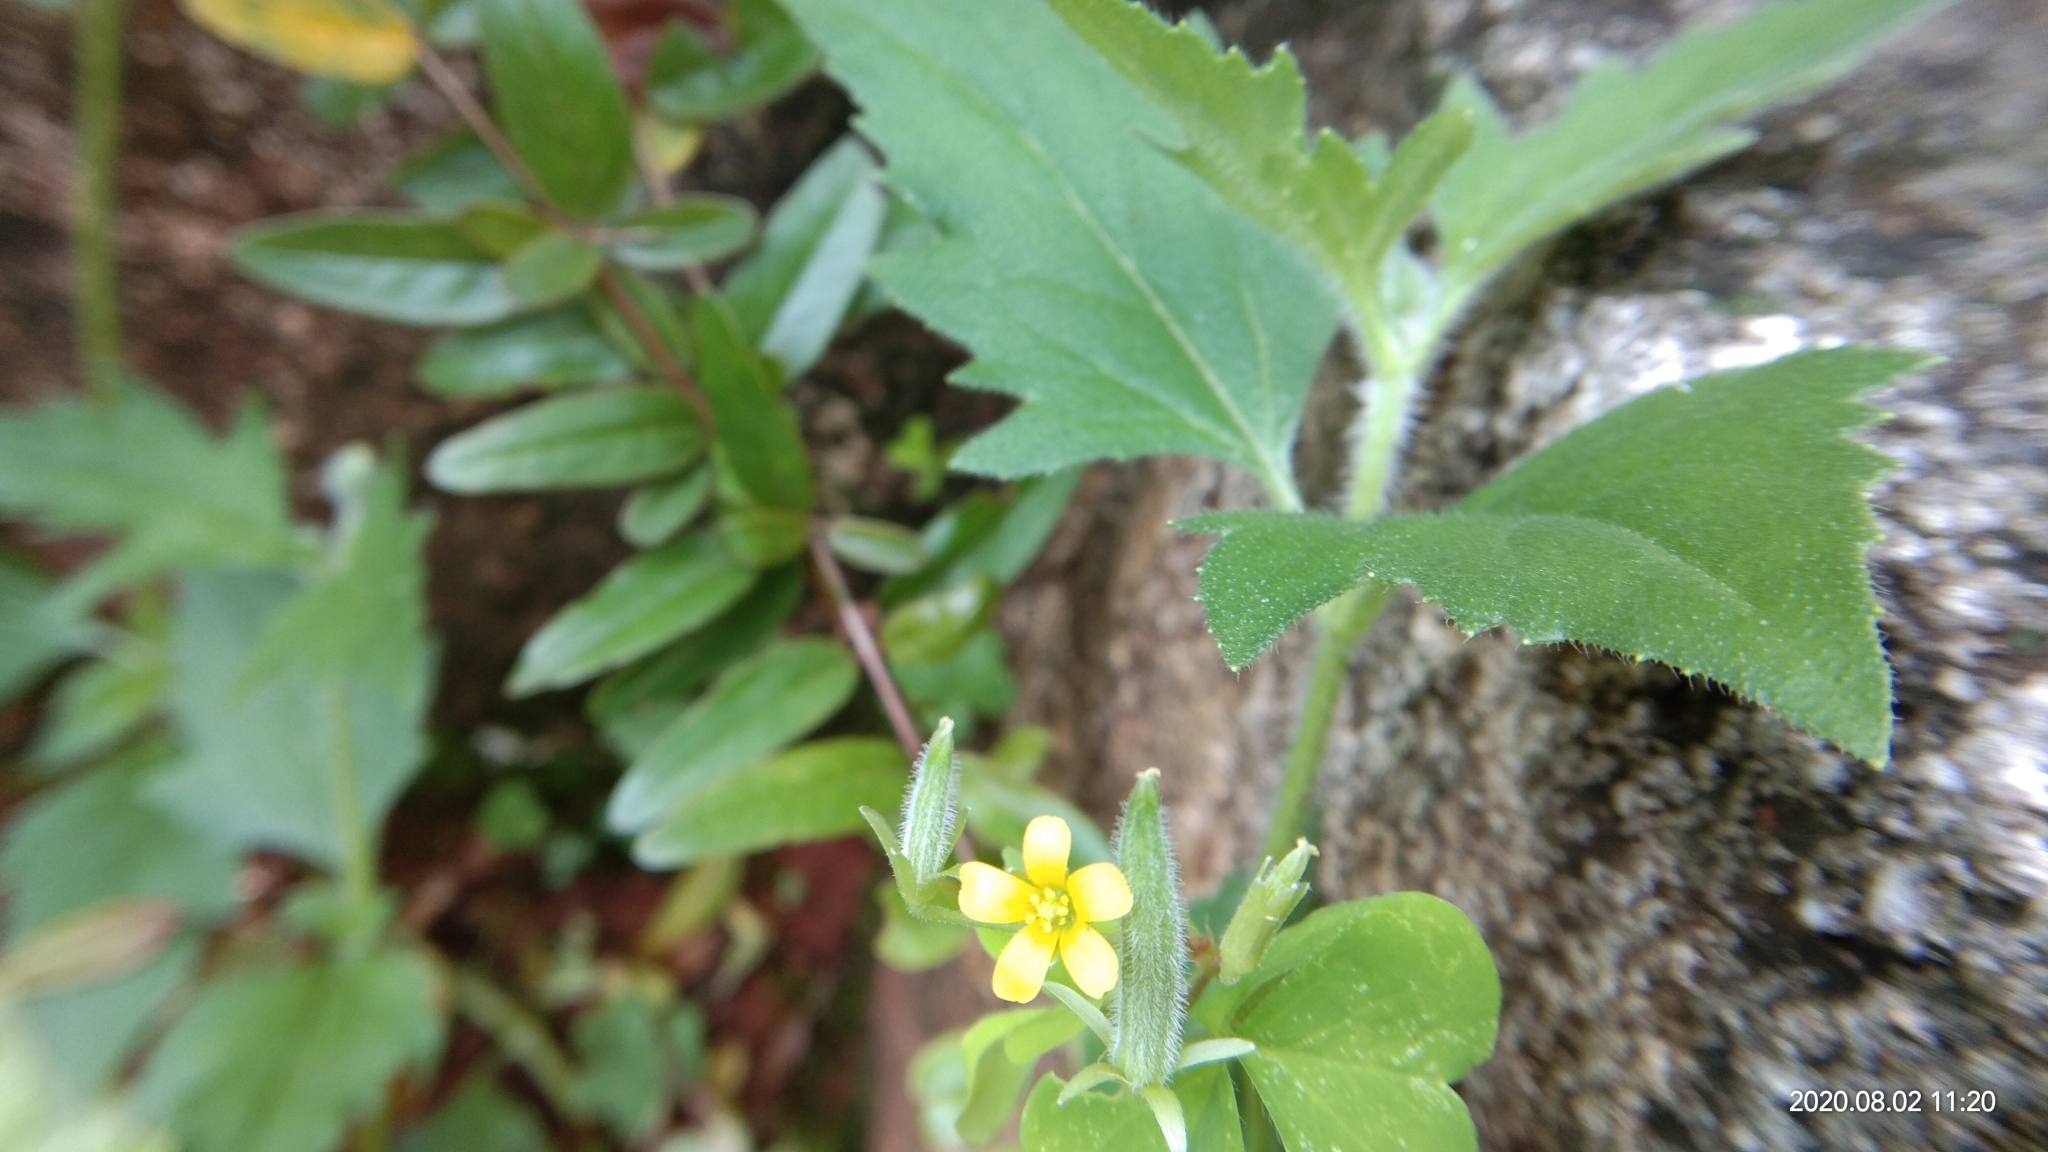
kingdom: Plantae
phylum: Tracheophyta
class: Magnoliopsida
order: Oxalidales
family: Oxalidaceae
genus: Oxalis
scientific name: Oxalis corniculata
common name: Procumbent yellow-sorrel
